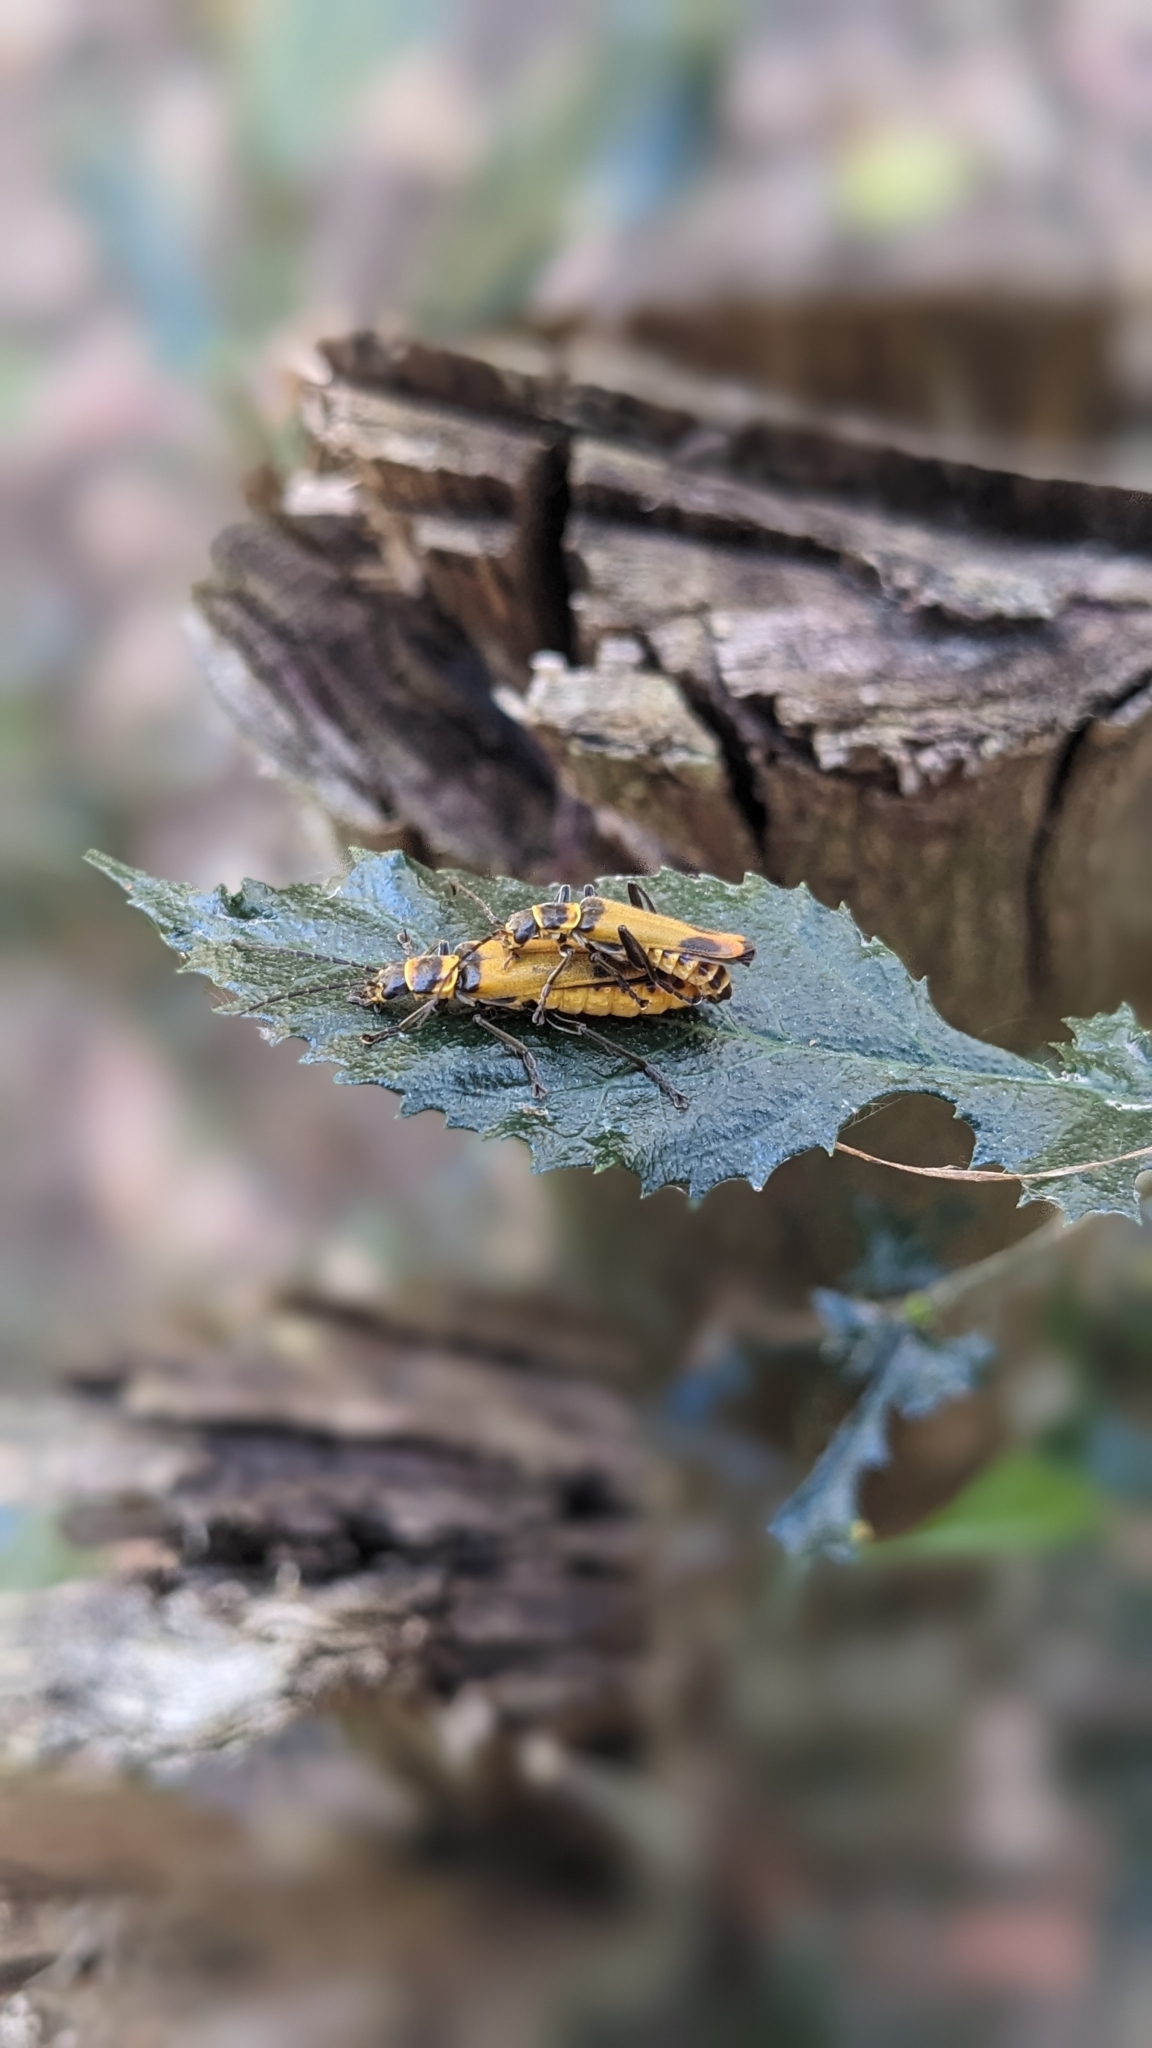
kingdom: Animalia
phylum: Arthropoda
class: Insecta
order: Coleoptera
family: Cantharidae
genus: Chauliognathus
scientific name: Chauliognathus
